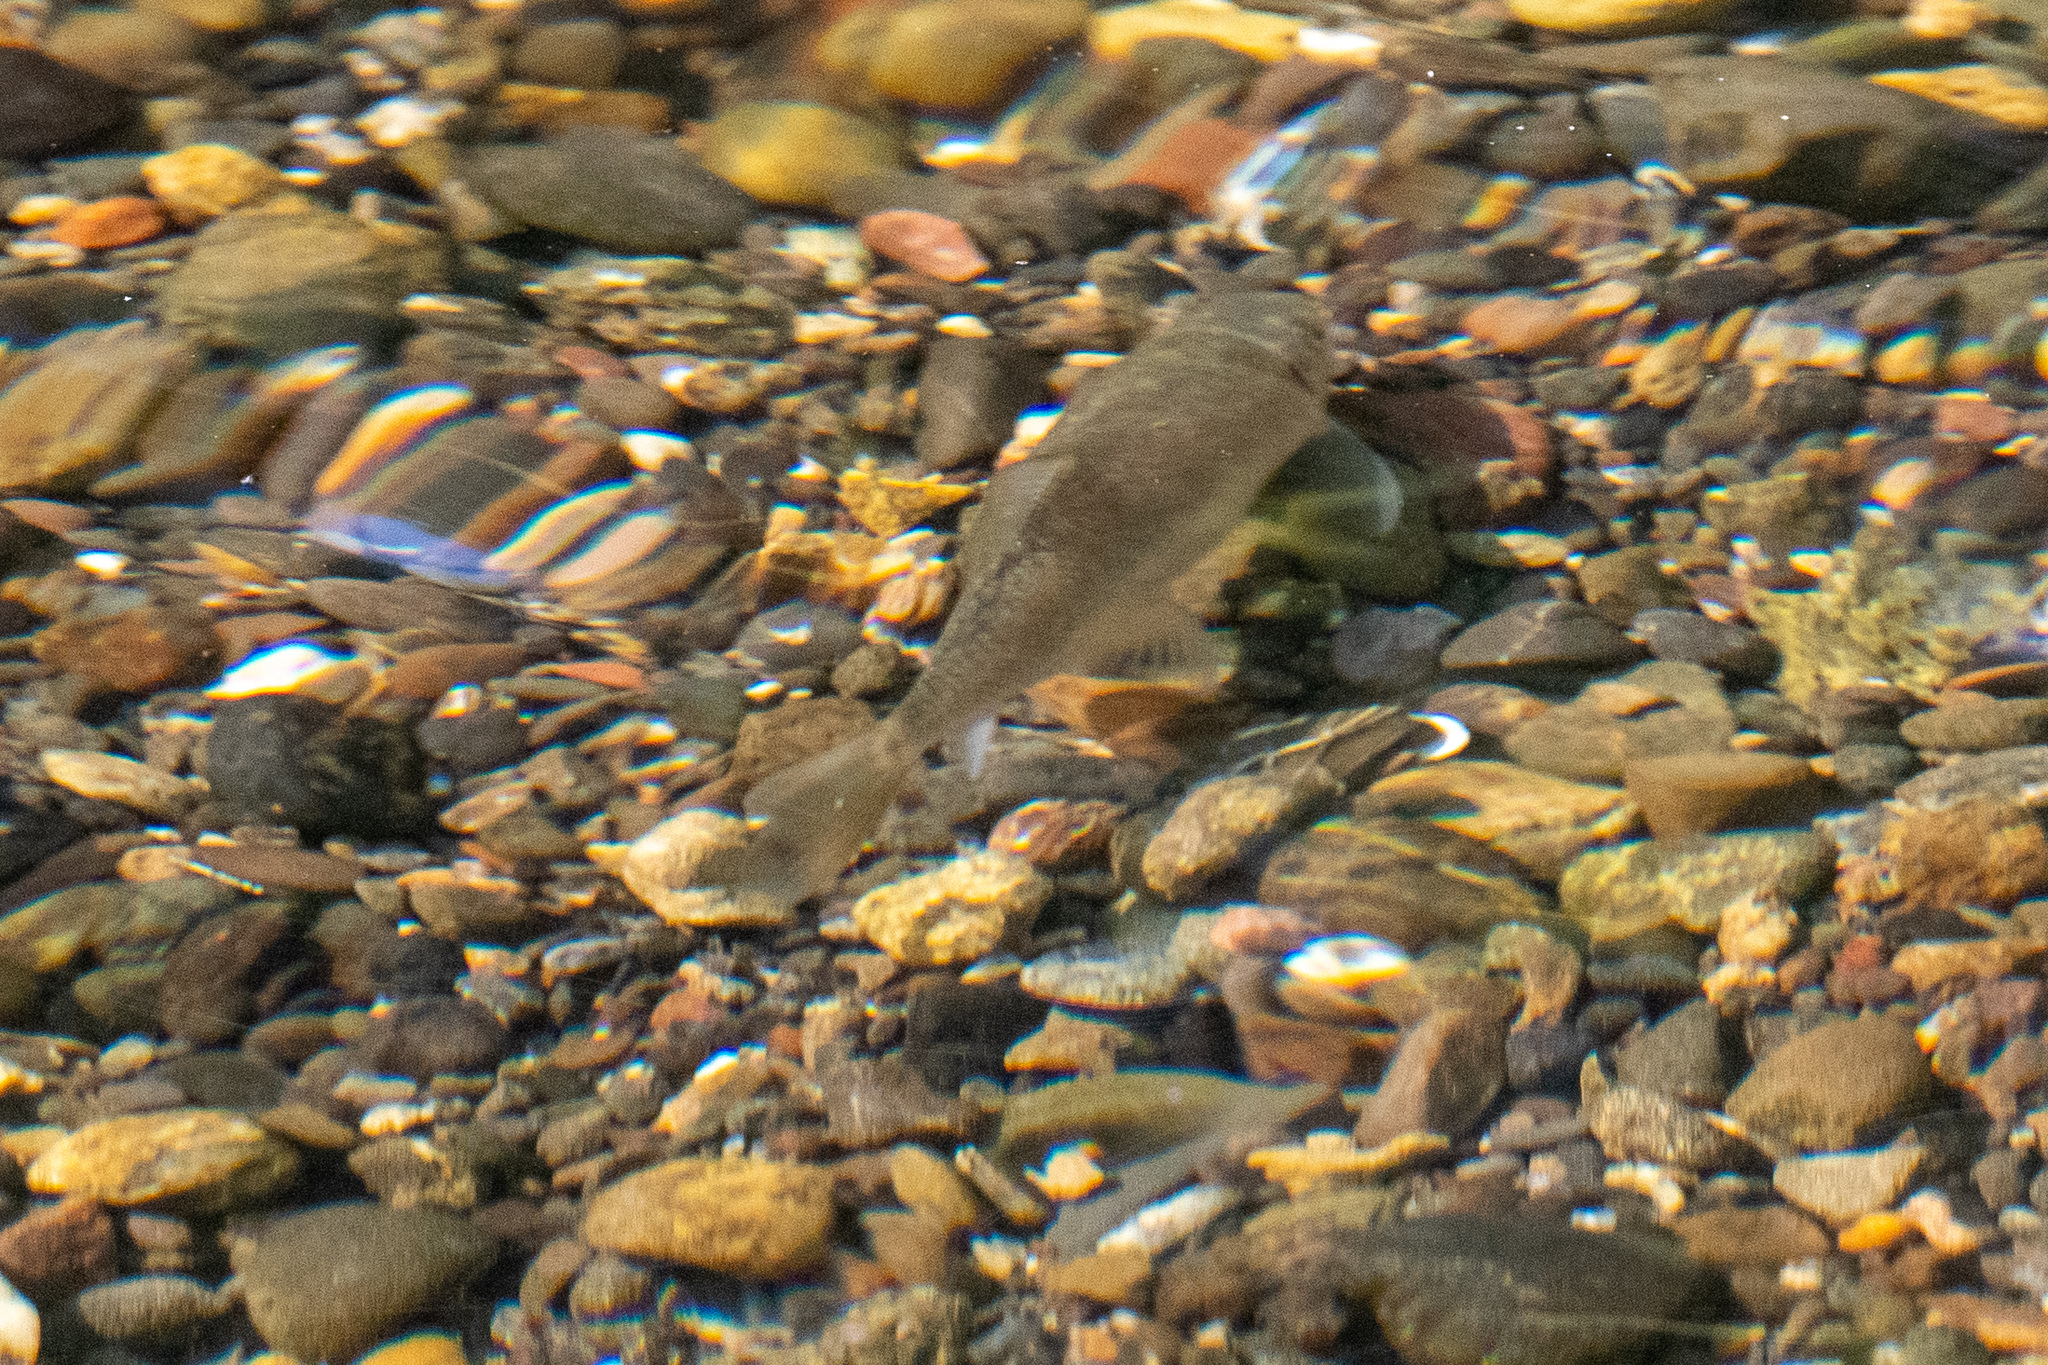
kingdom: Animalia
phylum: Chordata
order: Cypriniformes
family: Catostomidae
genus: Catostomus
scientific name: Catostomus occidentalis
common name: Goose lake sucker
